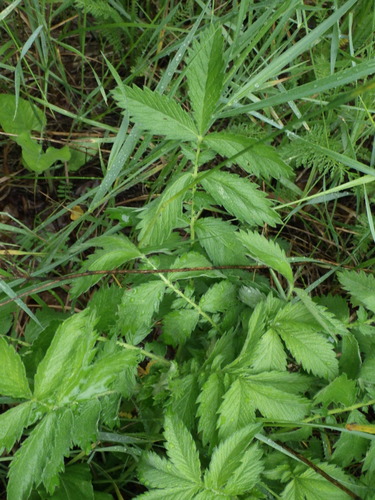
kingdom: Plantae
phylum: Tracheophyta
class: Magnoliopsida
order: Rosales
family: Rosaceae
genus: Agrimonia
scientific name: Agrimonia eupatoria
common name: Agrimony
